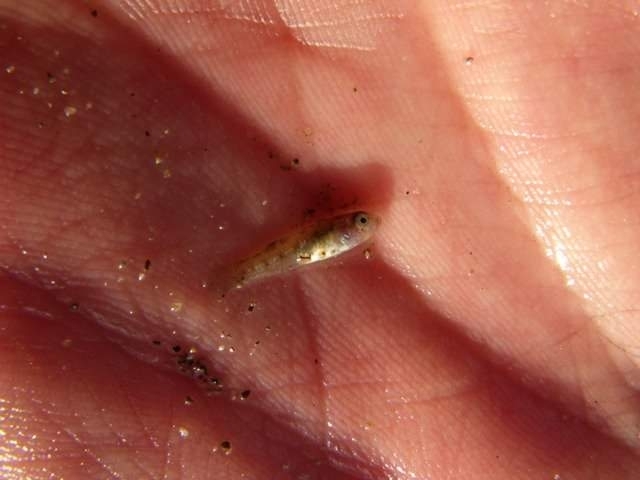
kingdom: Animalia
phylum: Chordata
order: Cyprinodontiformes
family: Cyprinodontidae
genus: Aphanius
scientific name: Aphanius fasciatus
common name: Mediterranean banded killifish
